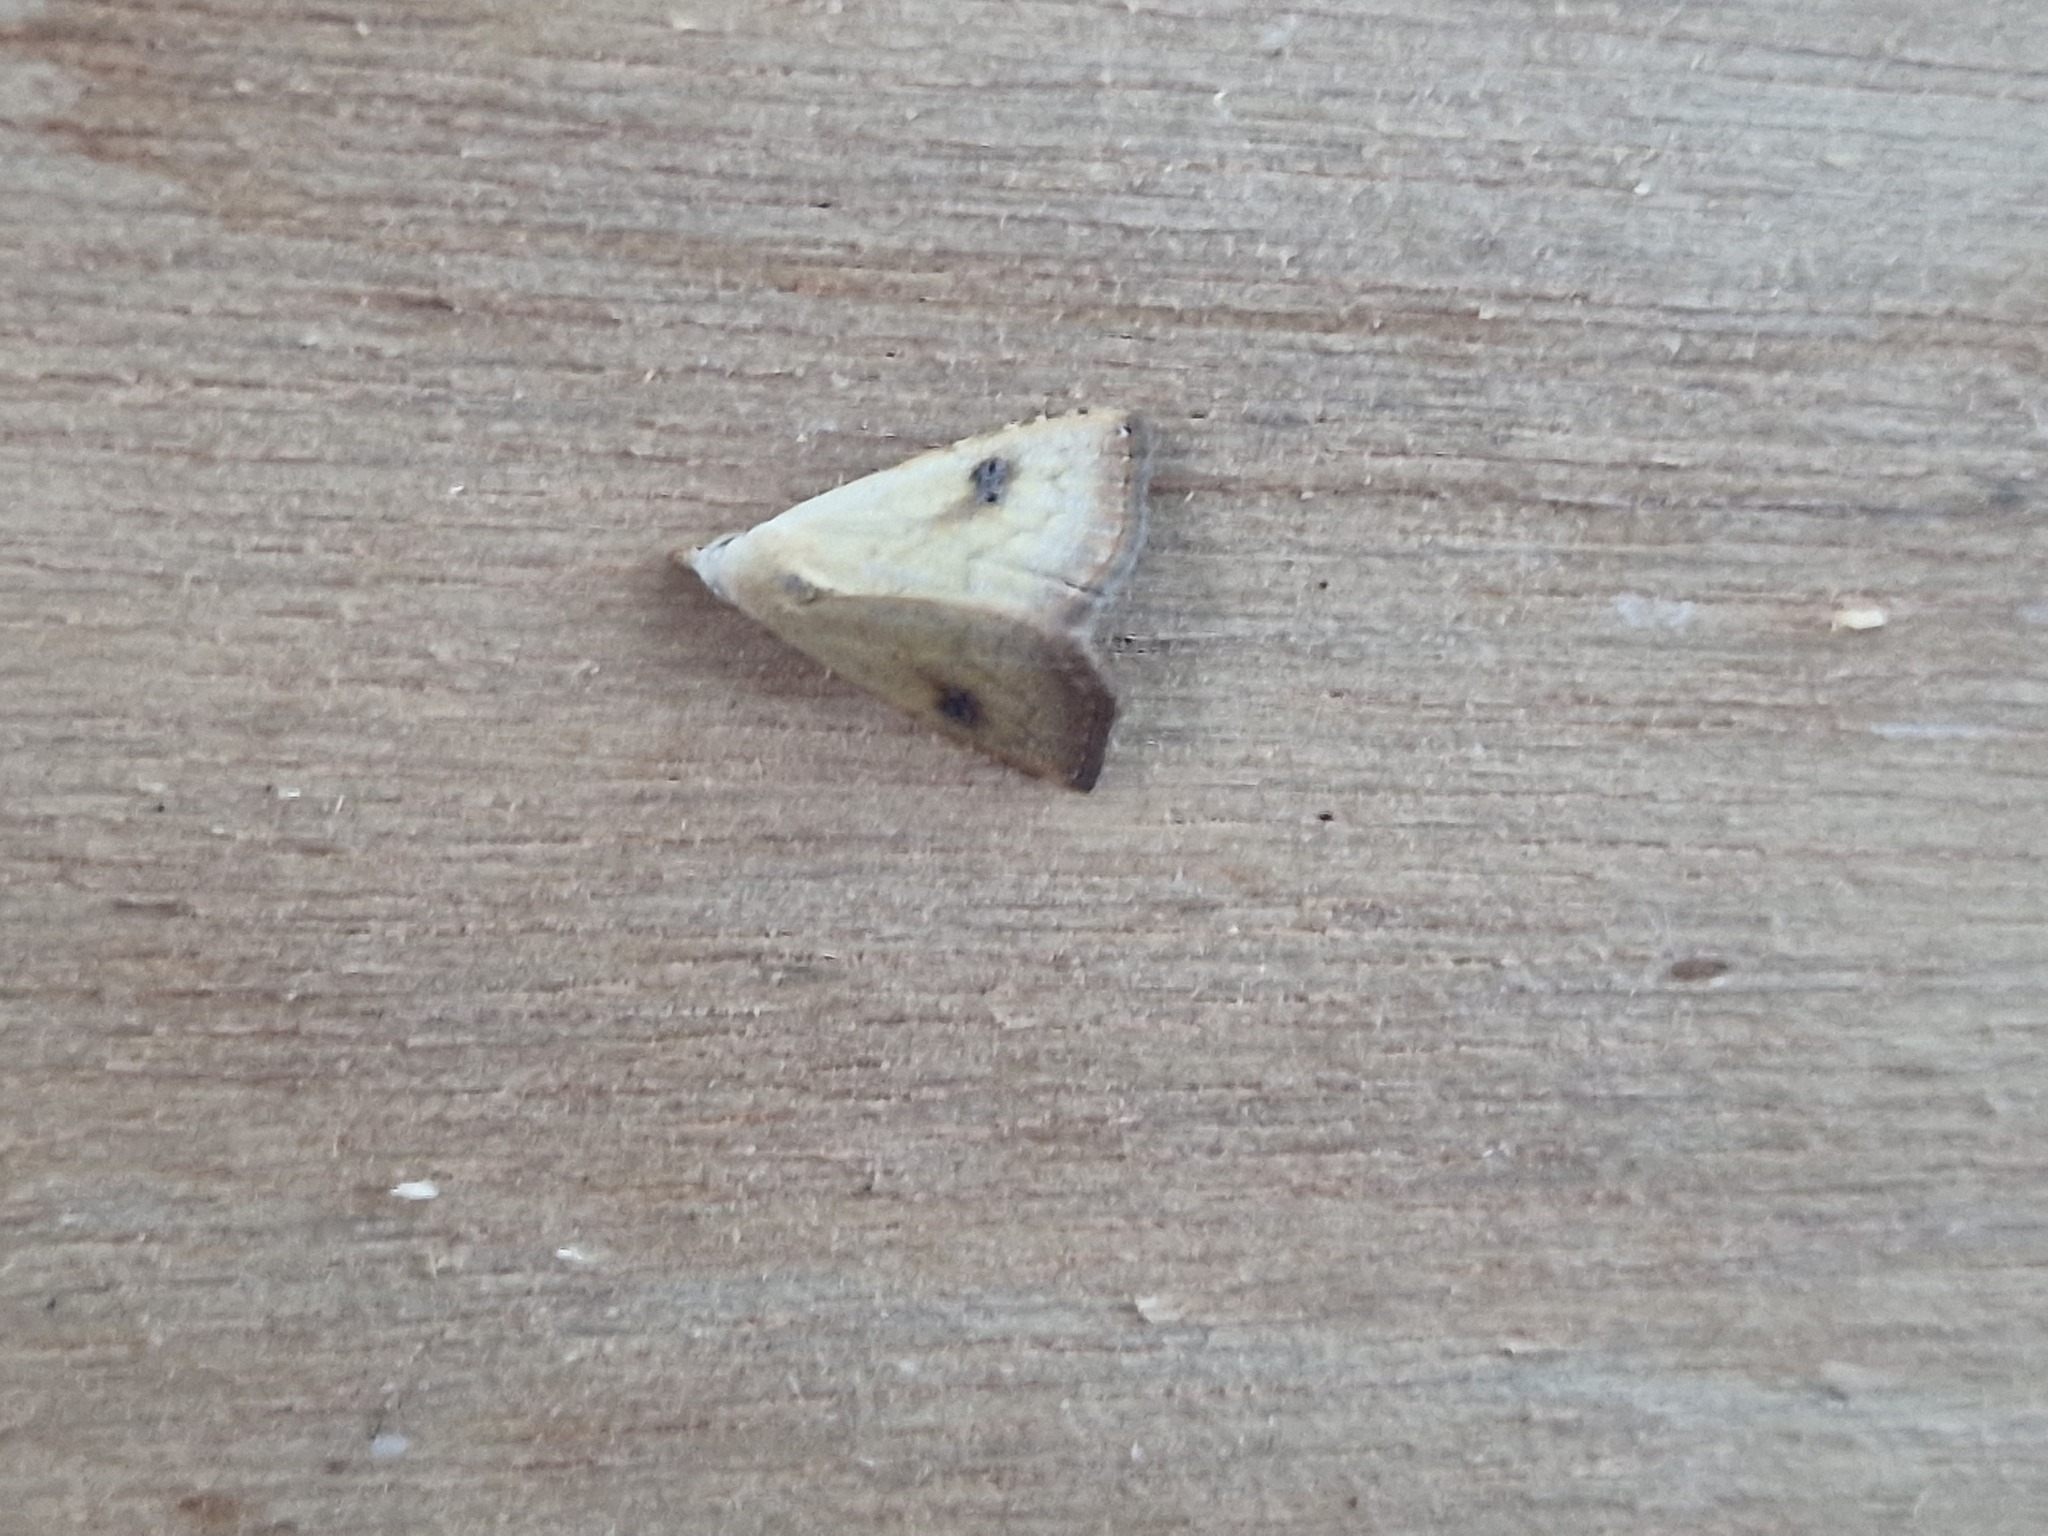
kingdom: Animalia
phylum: Arthropoda
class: Insecta
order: Lepidoptera
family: Erebidae
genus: Rivula
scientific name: Rivula sericealis
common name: Straw dot
